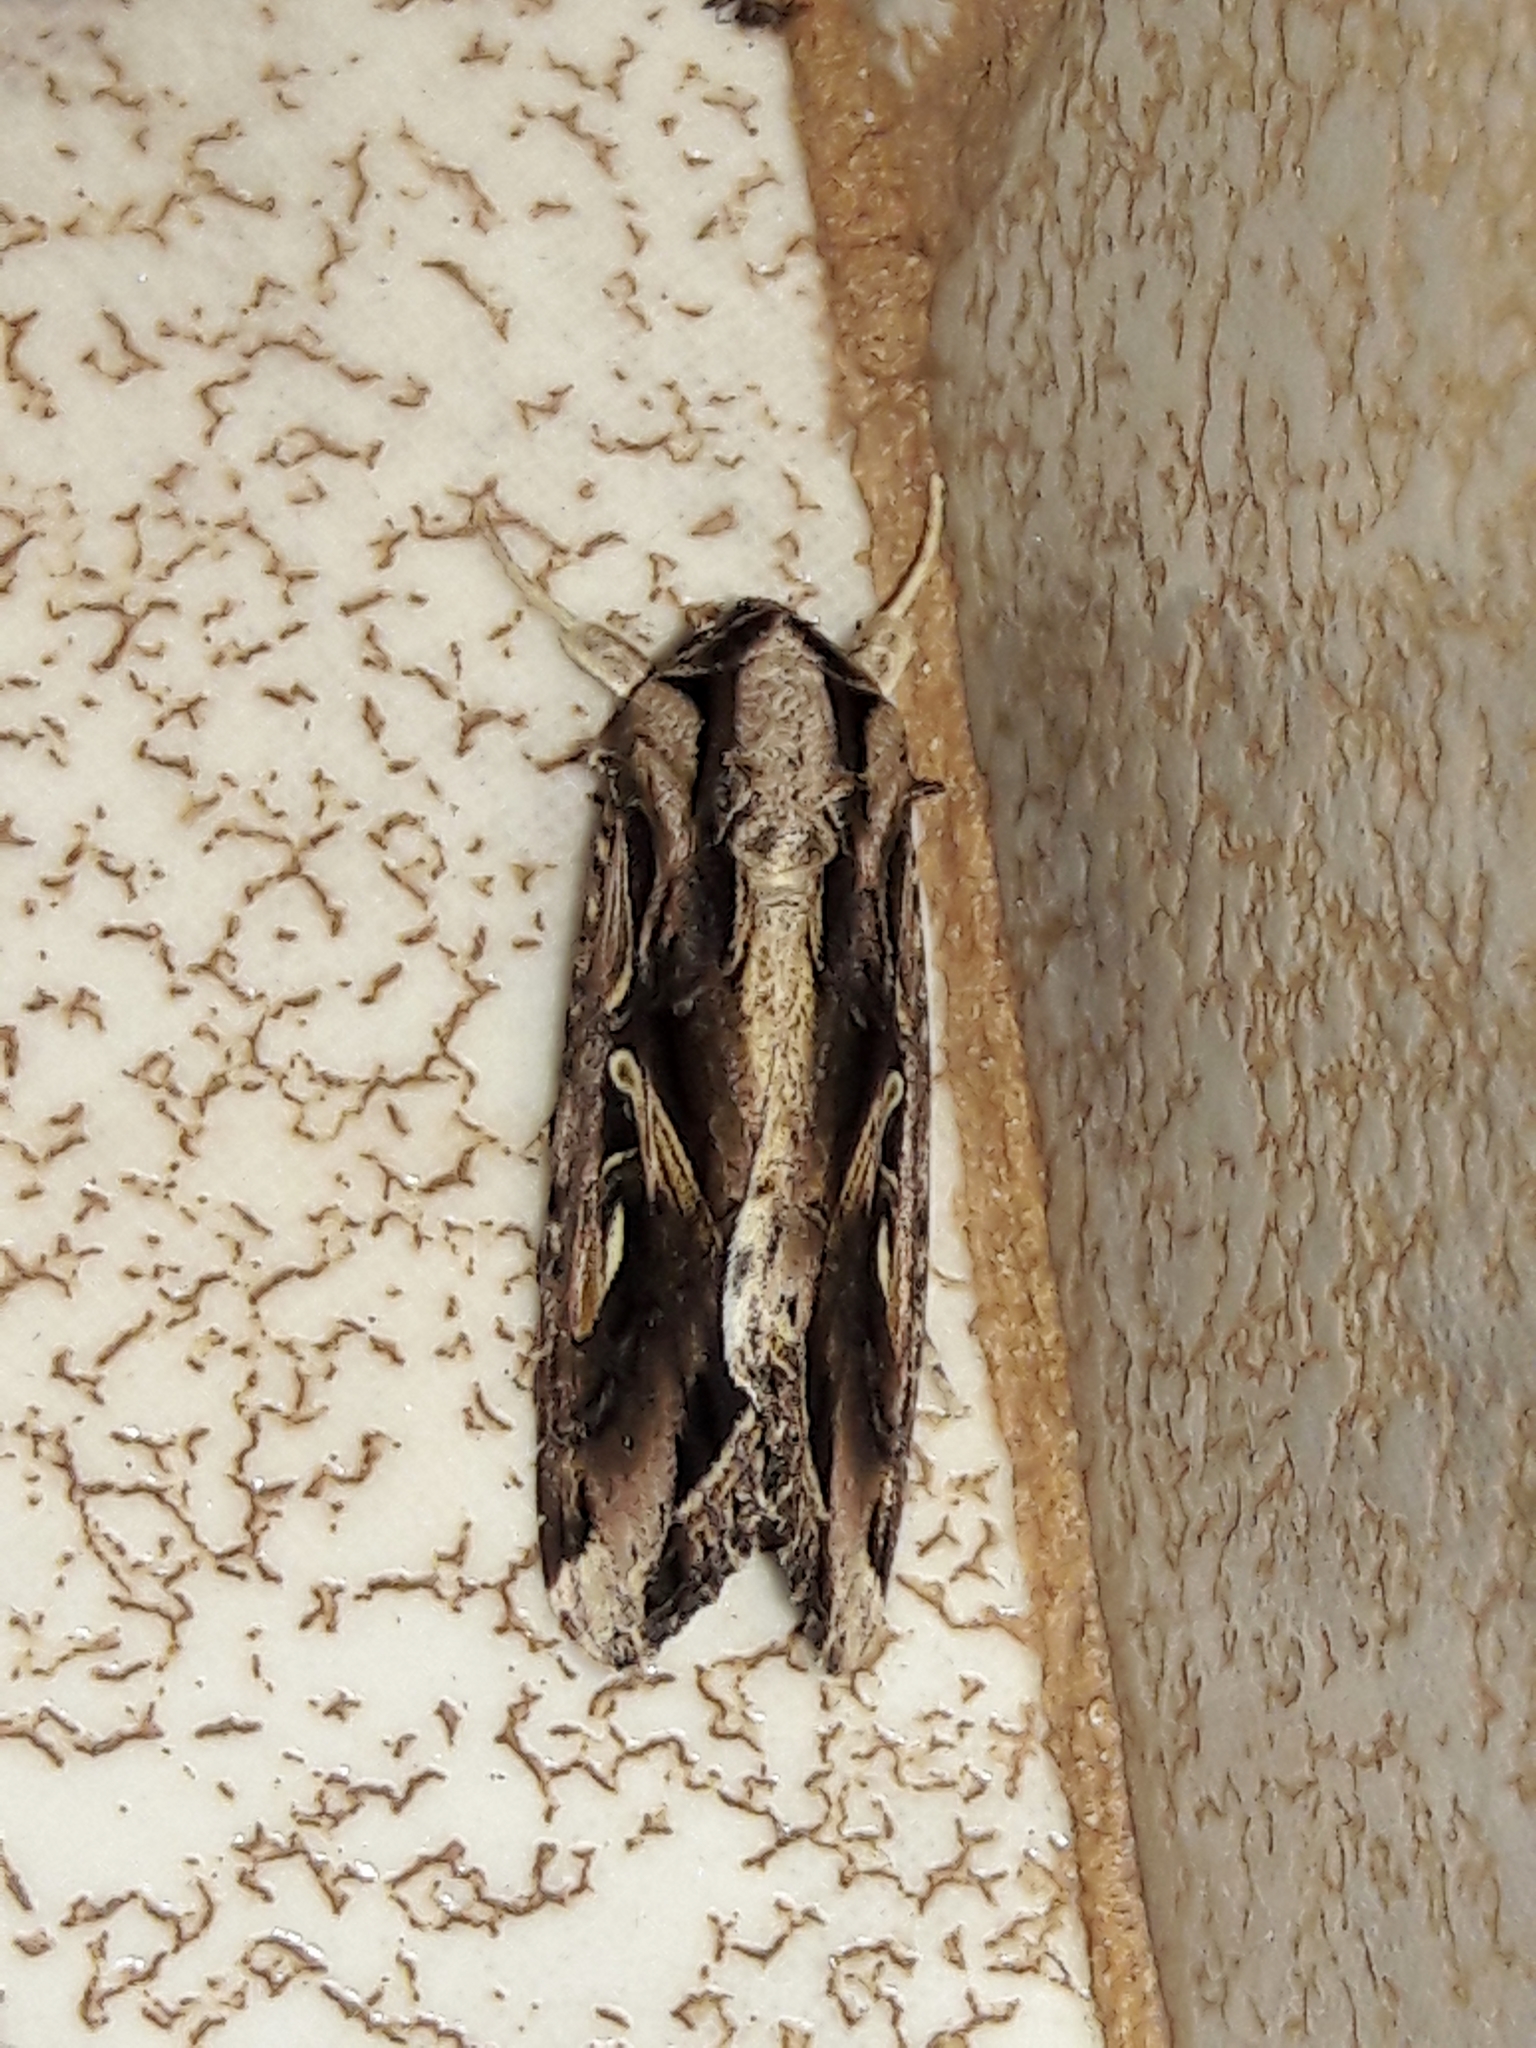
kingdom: Animalia
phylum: Arthropoda
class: Insecta
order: Lepidoptera
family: Noctuidae
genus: Spodoptera
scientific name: Spodoptera dolichos
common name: Sweetpotato armyworm
